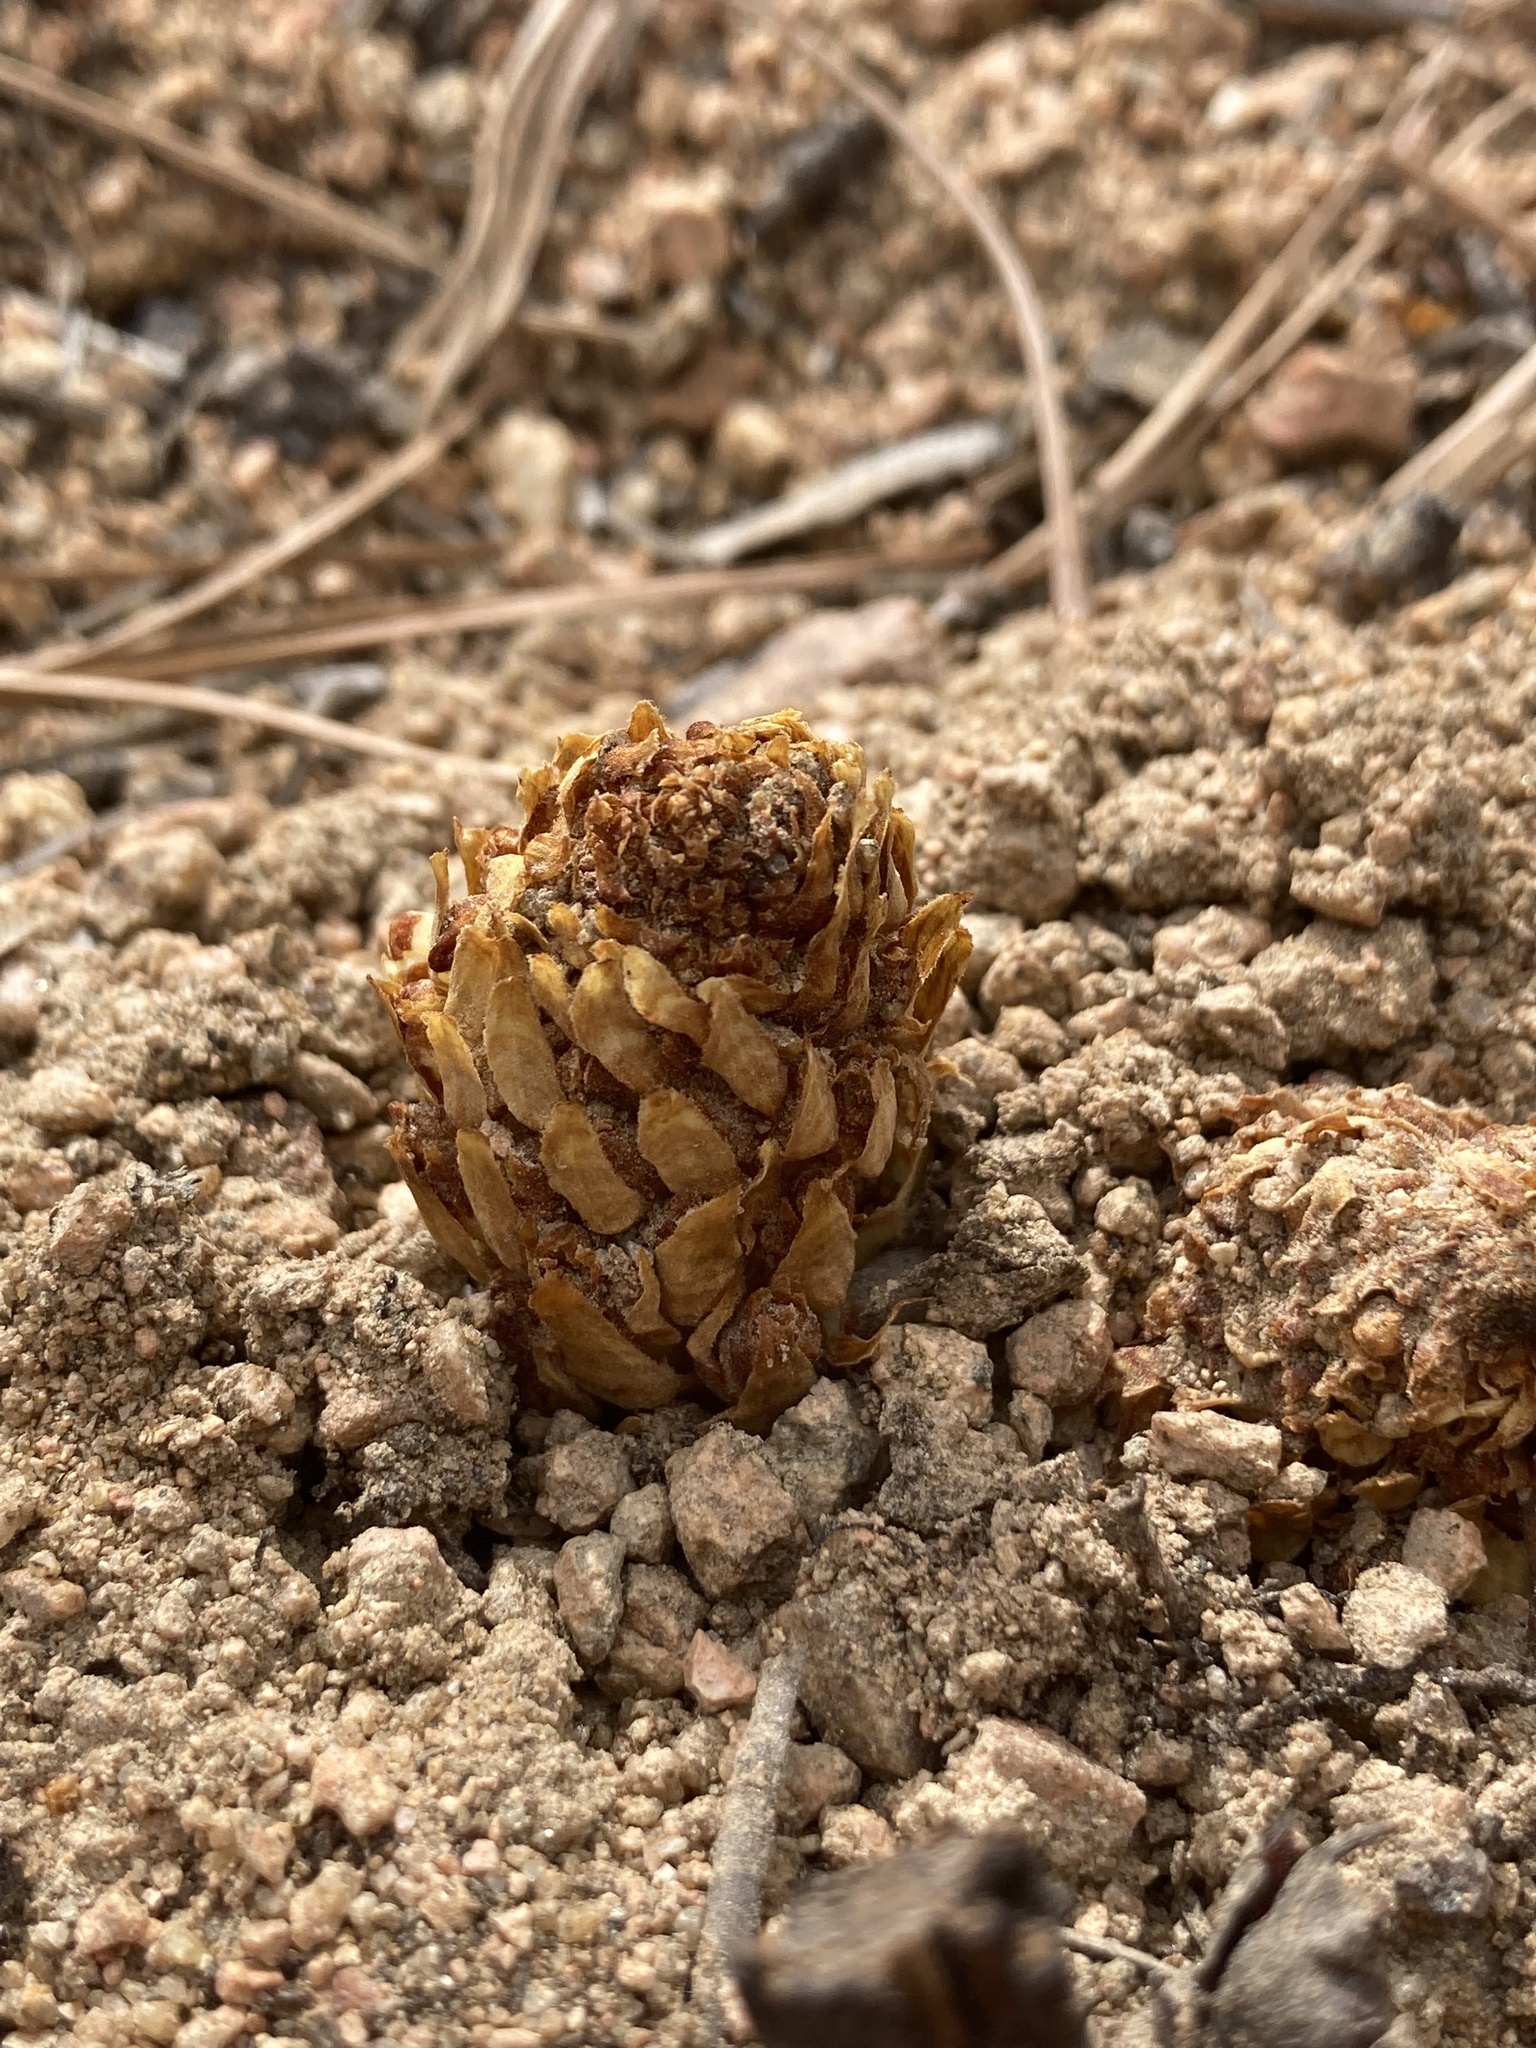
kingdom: Plantae
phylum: Tracheophyta
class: Magnoliopsida
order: Lamiales
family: Orobanchaceae
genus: Conopholis
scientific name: Conopholis alpina
